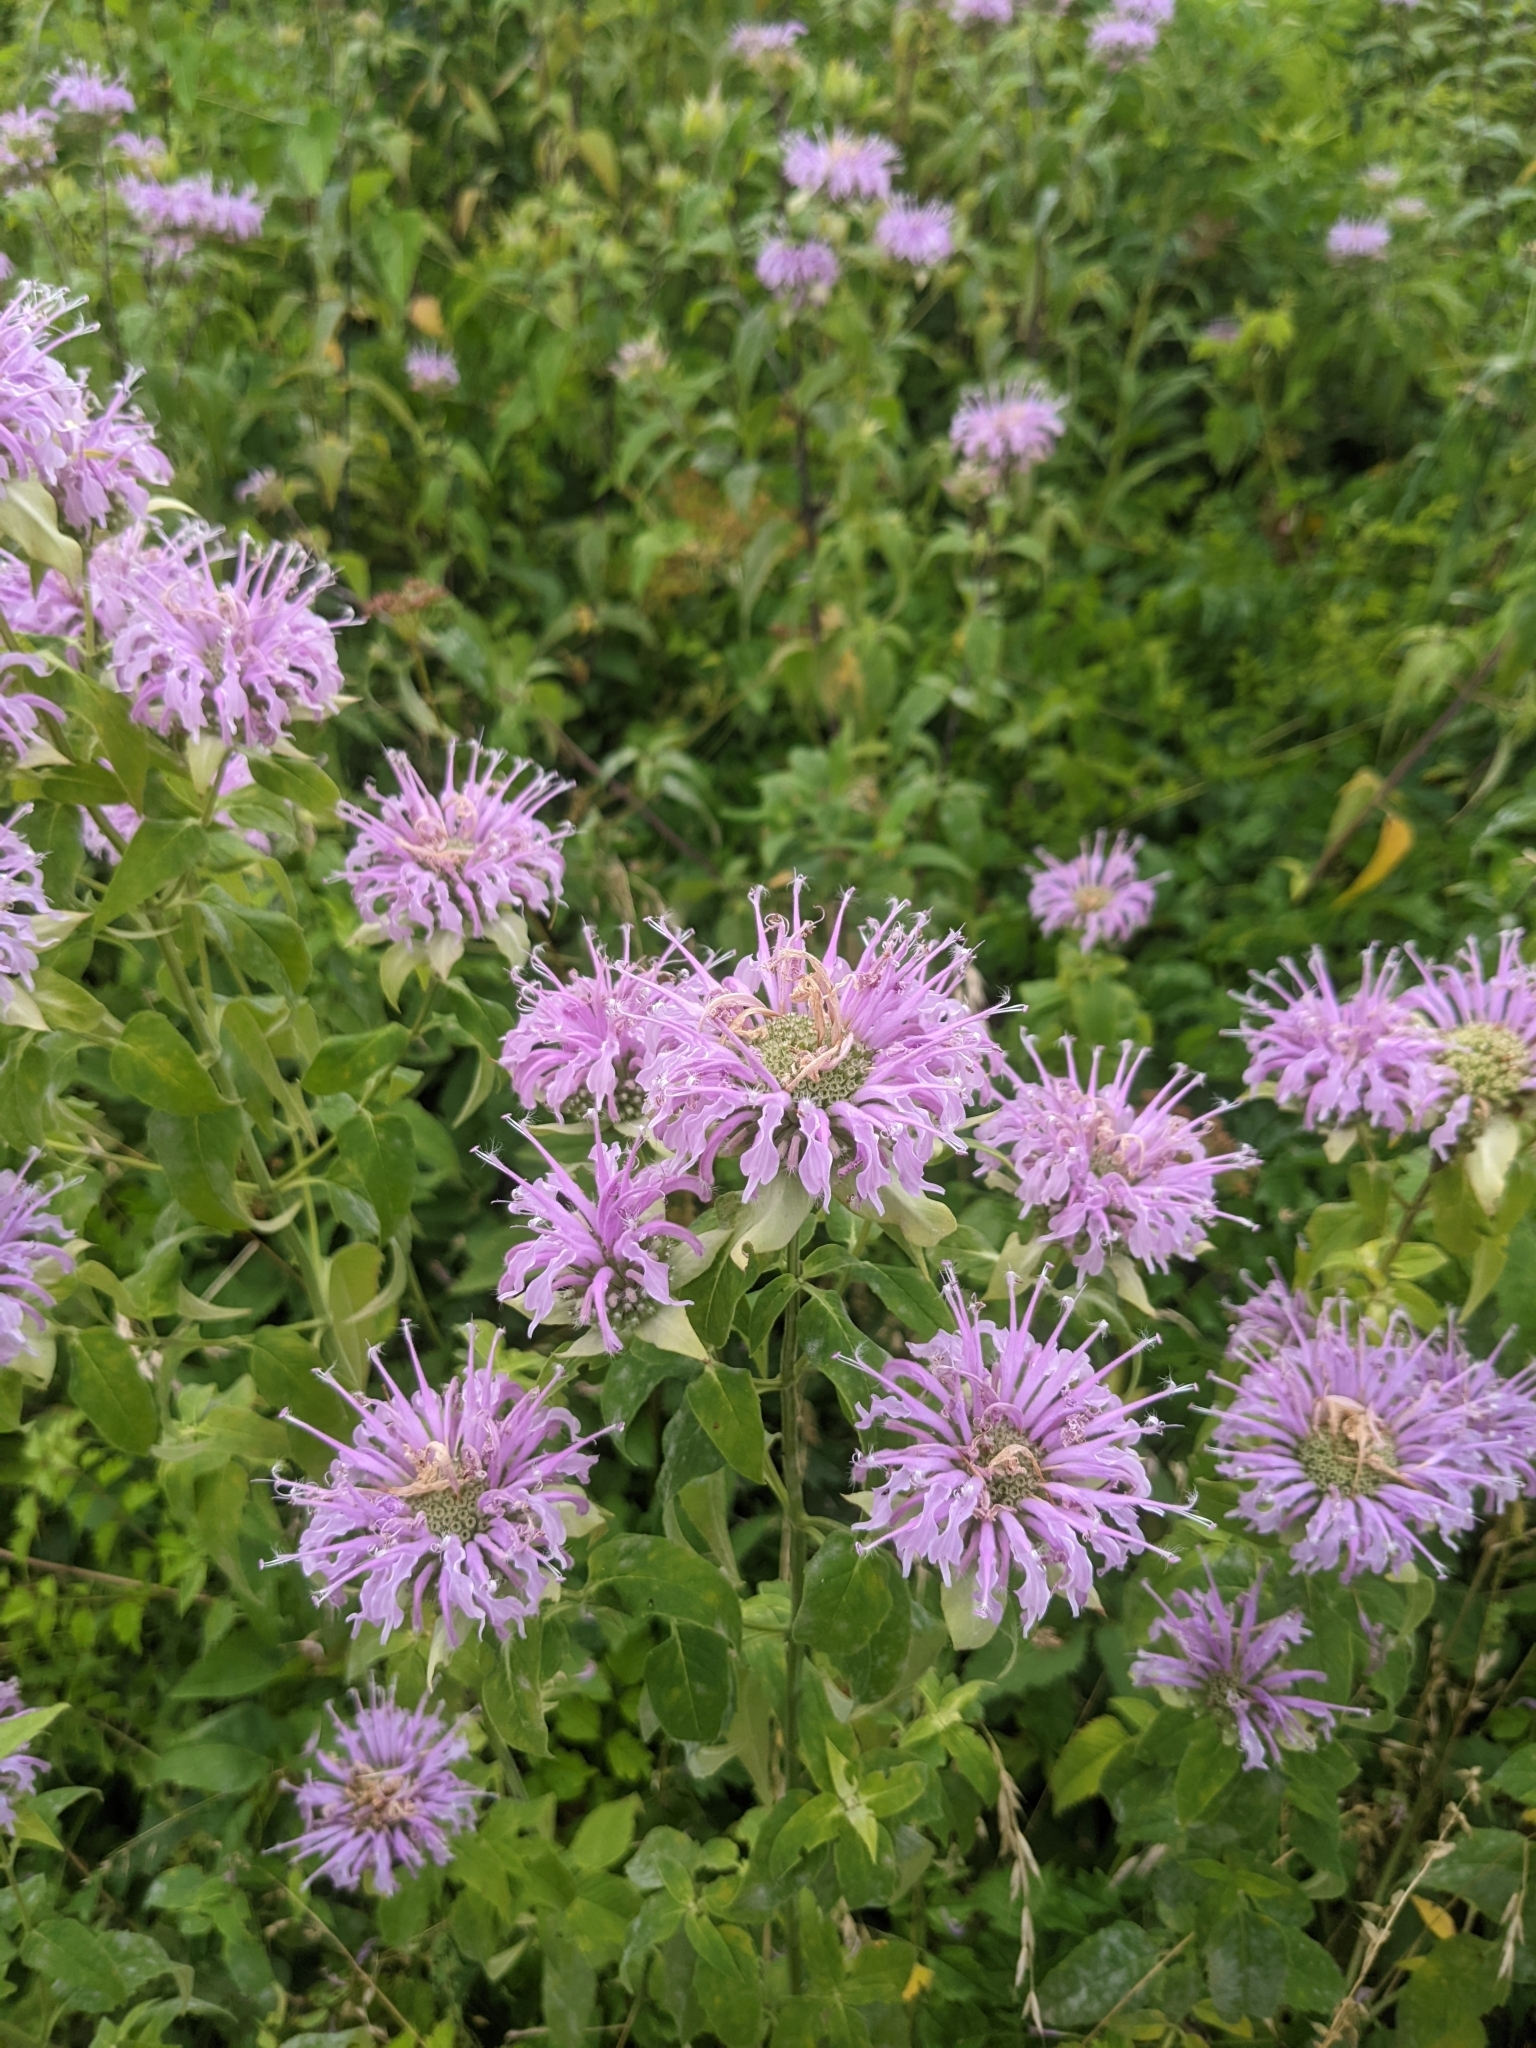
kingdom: Plantae
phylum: Tracheophyta
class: Magnoliopsida
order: Lamiales
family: Lamiaceae
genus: Monarda
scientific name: Monarda fistulosa
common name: Purple beebalm
